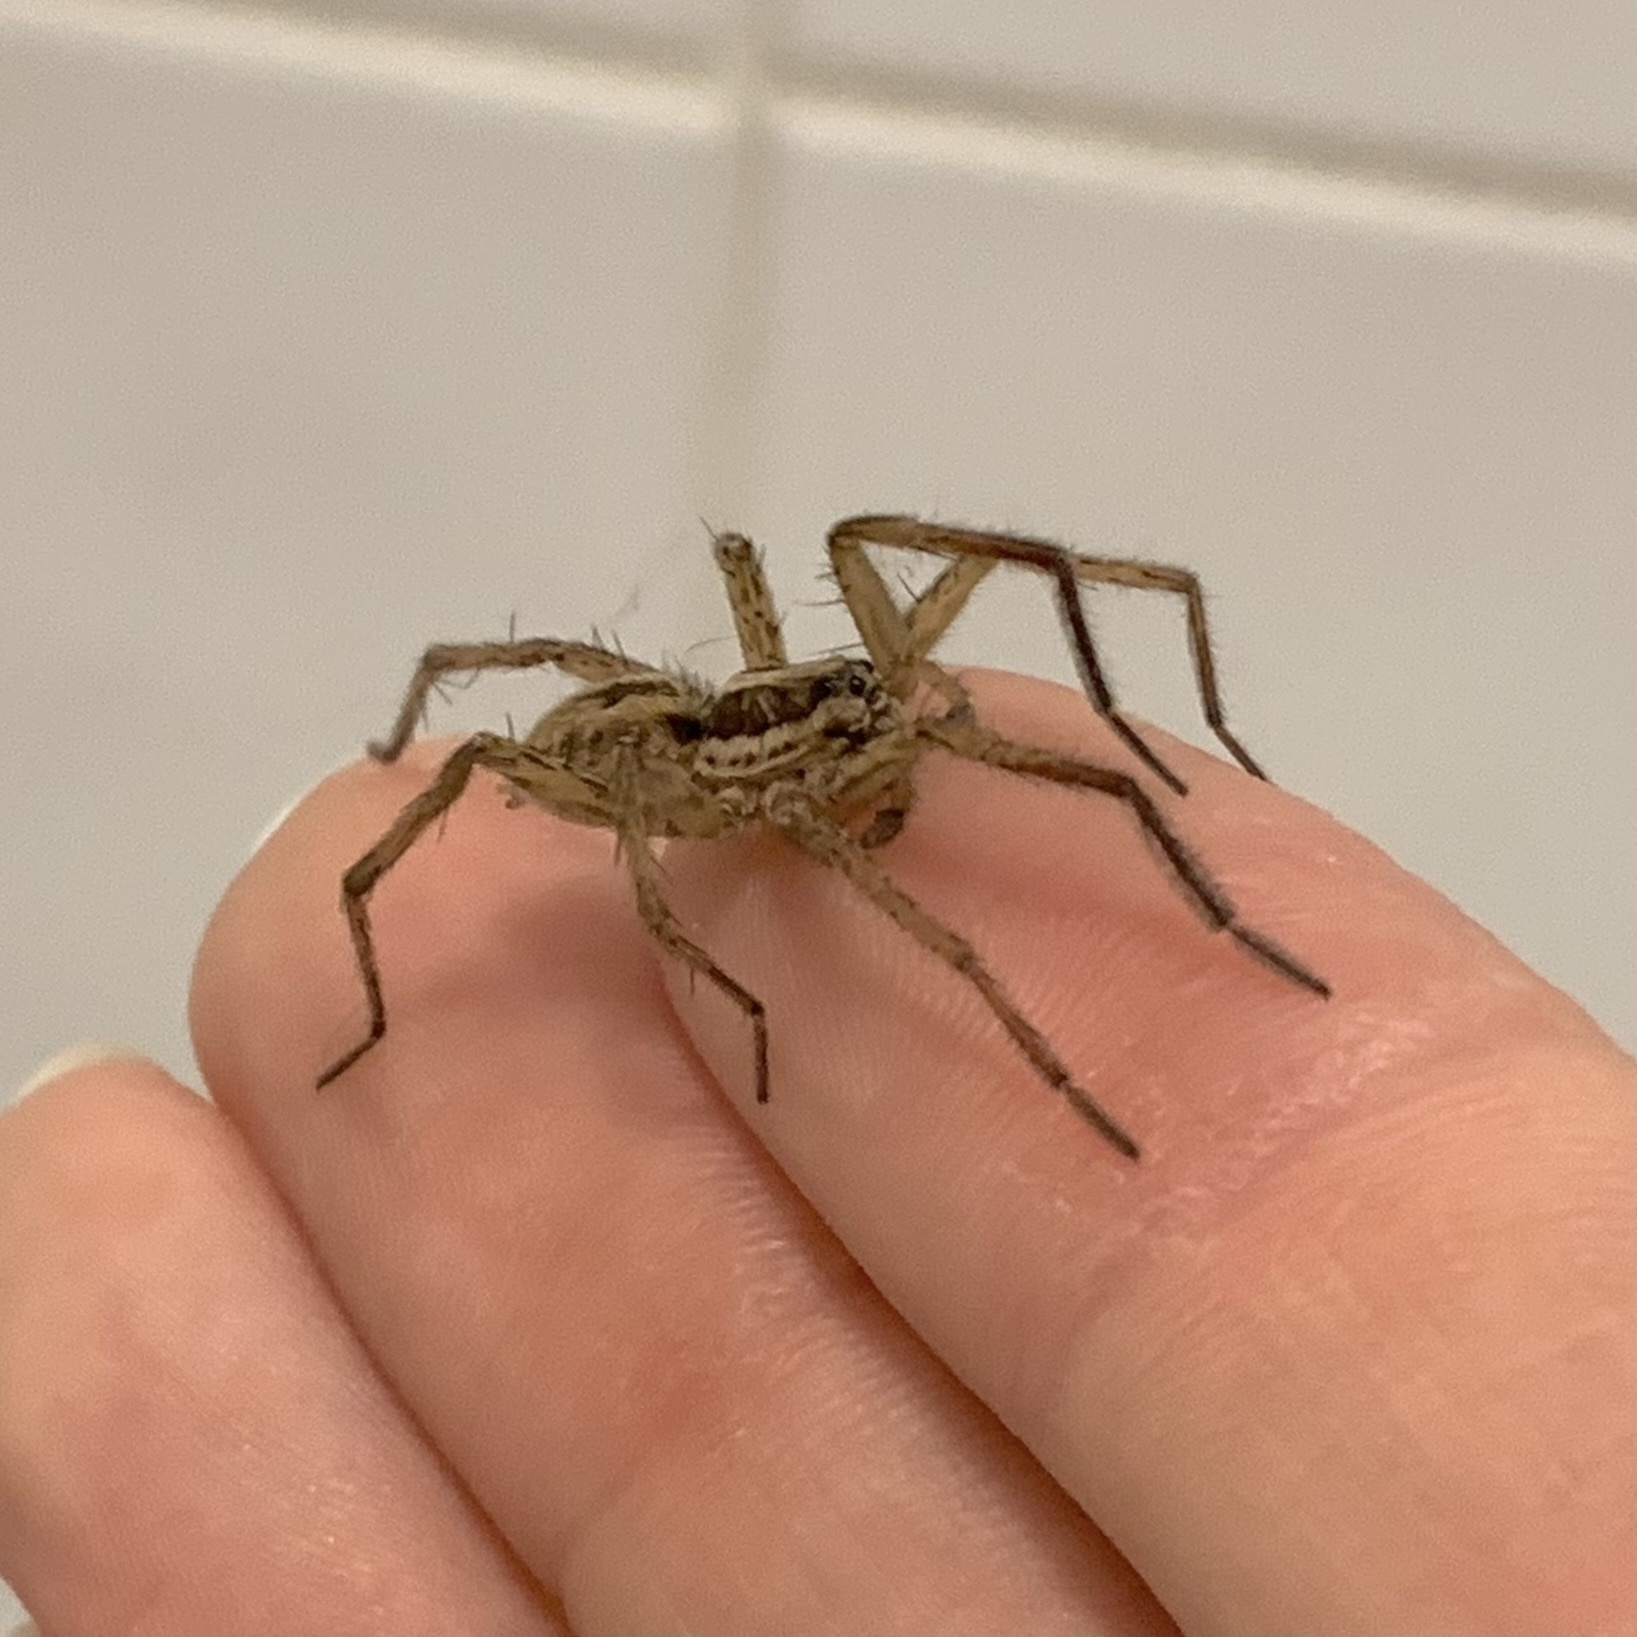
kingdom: Animalia
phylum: Arthropoda
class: Arachnida
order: Araneae
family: Lycosidae
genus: Hogna
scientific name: Hogna radiata
